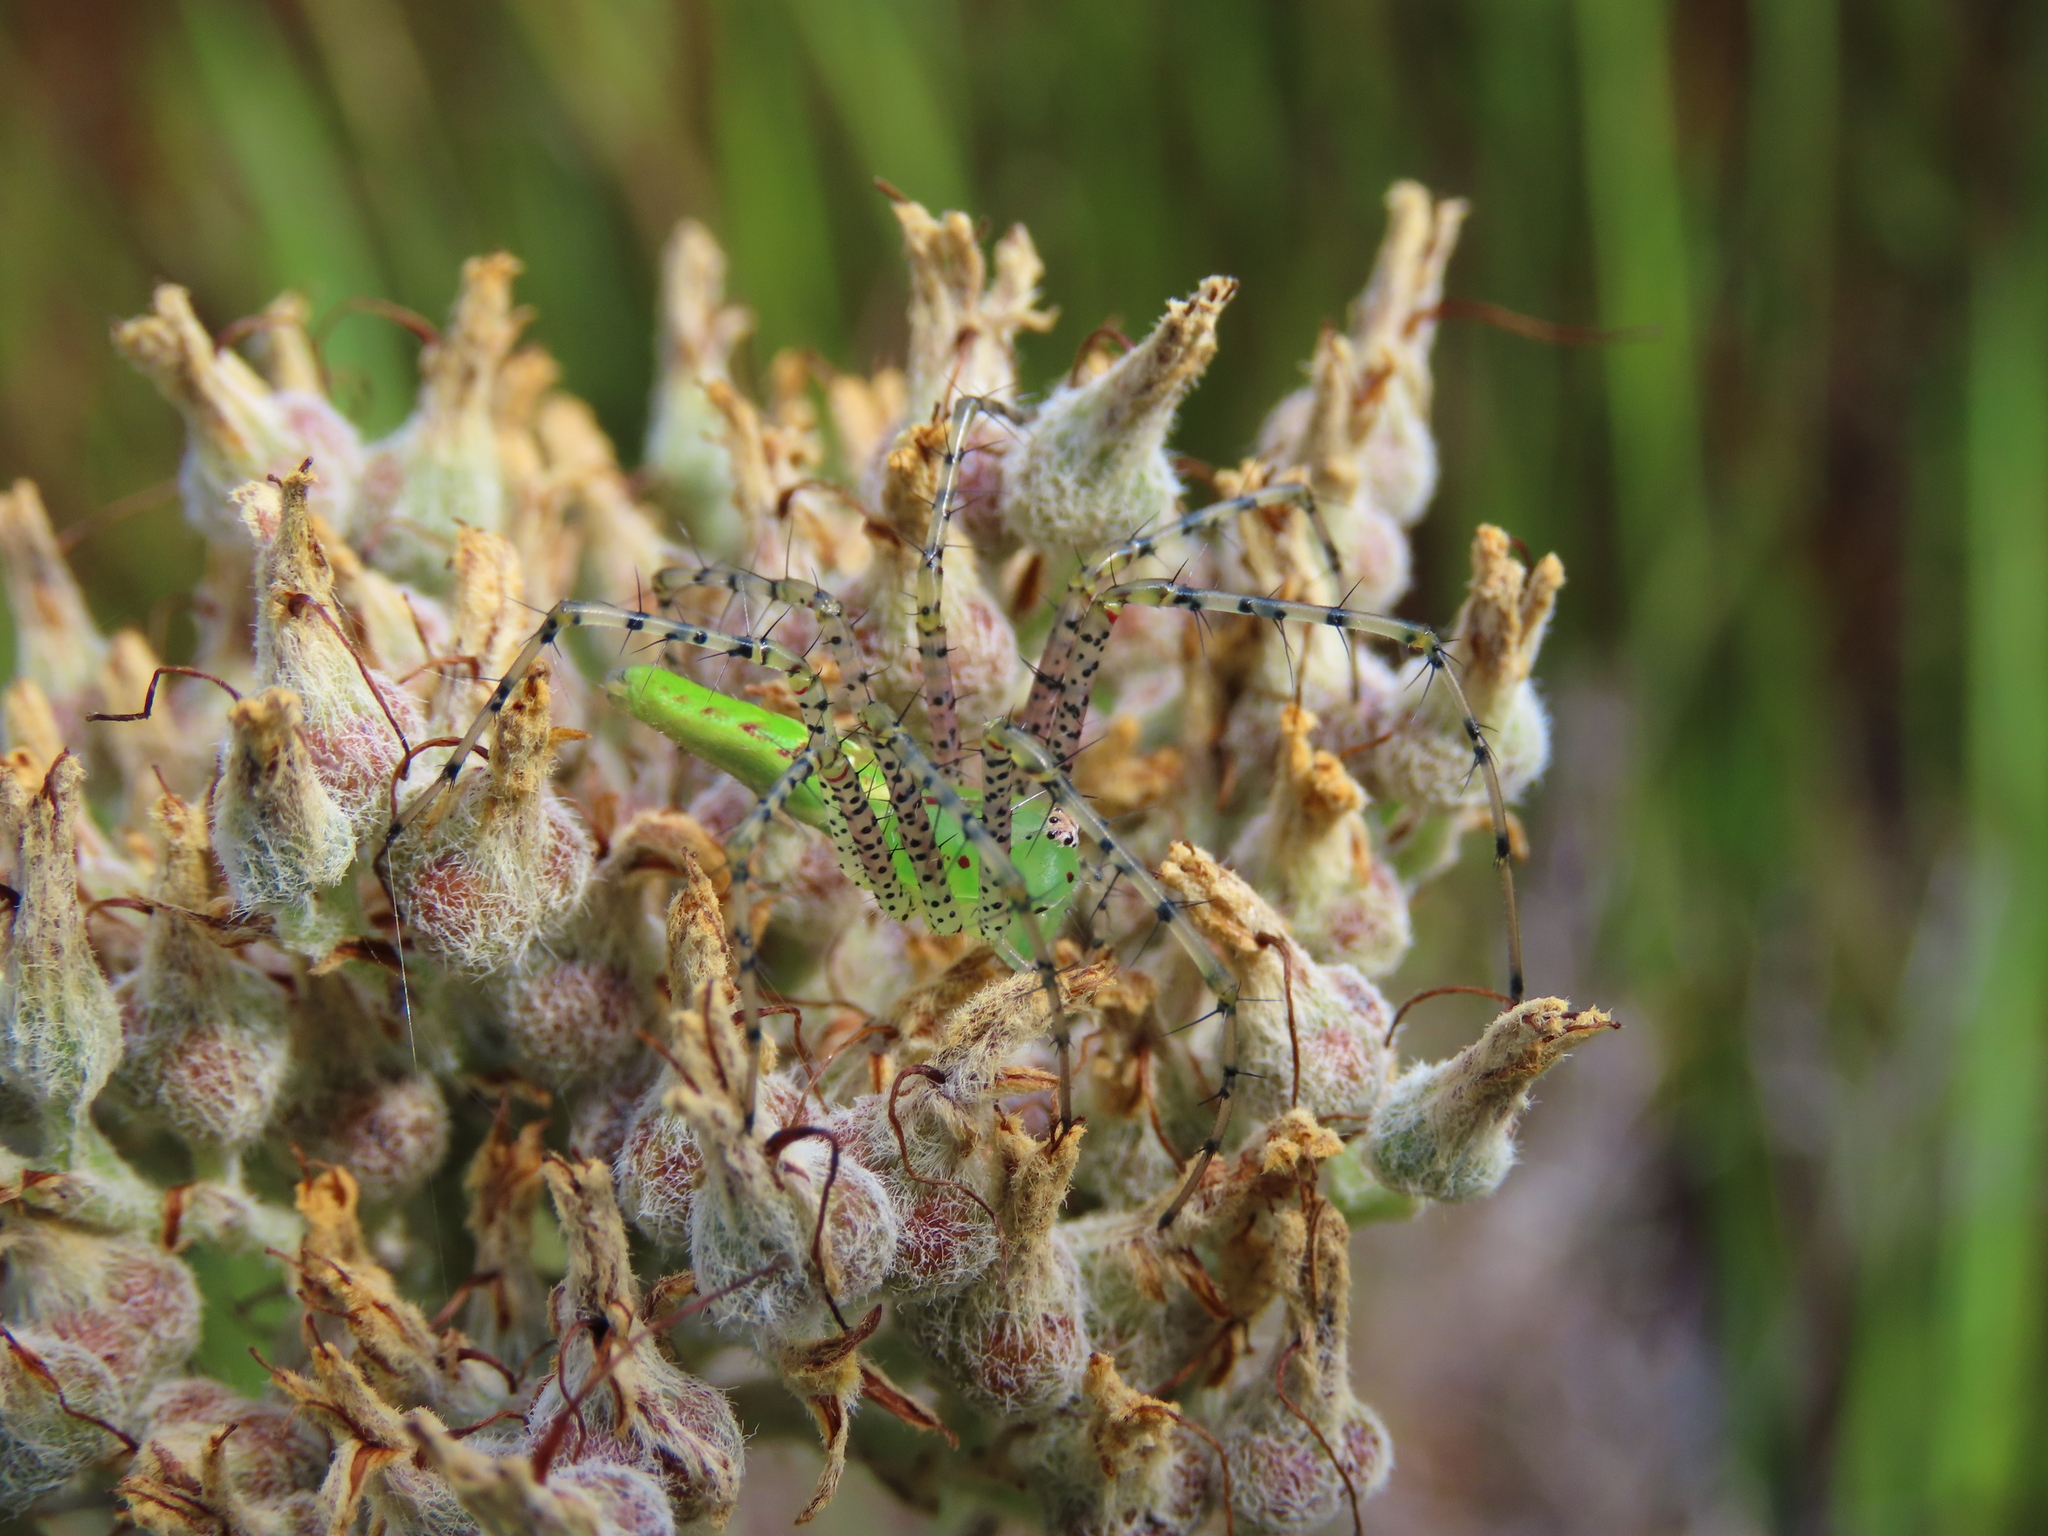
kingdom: Animalia
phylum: Arthropoda
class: Arachnida
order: Araneae
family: Oxyopidae
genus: Peucetia
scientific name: Peucetia viridans
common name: Lynx spiders
